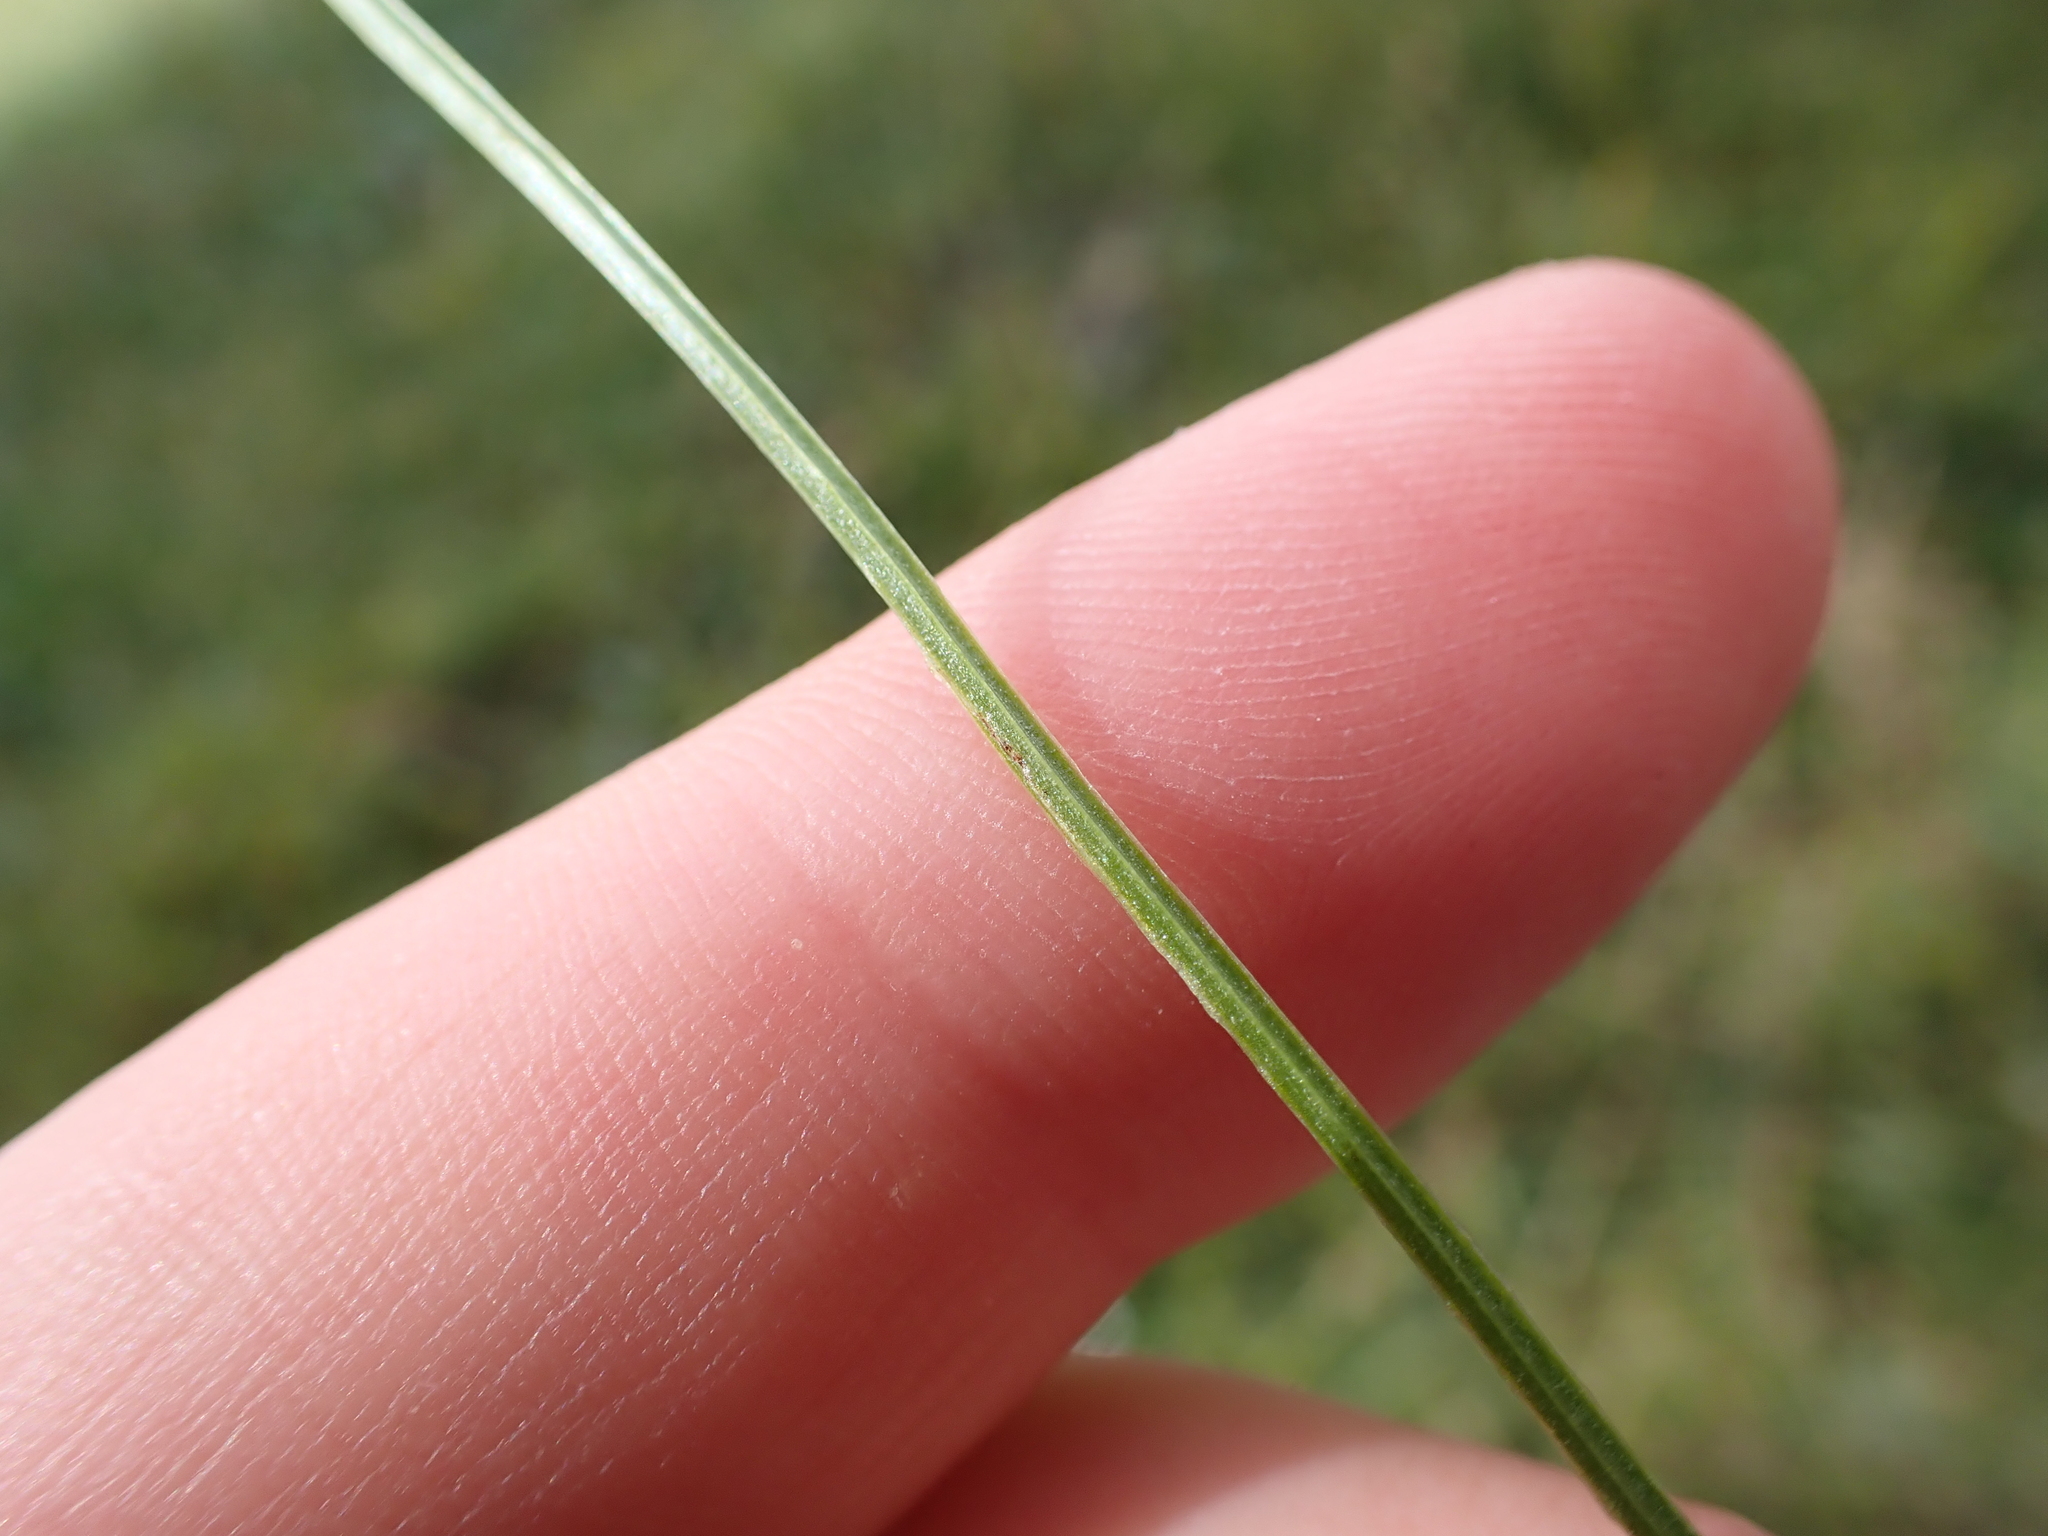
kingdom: Plantae
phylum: Tracheophyta
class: Magnoliopsida
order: Celastrales
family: Parnassiaceae
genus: Parnassia
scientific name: Parnassia palustris
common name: Grass-of-parnassus
